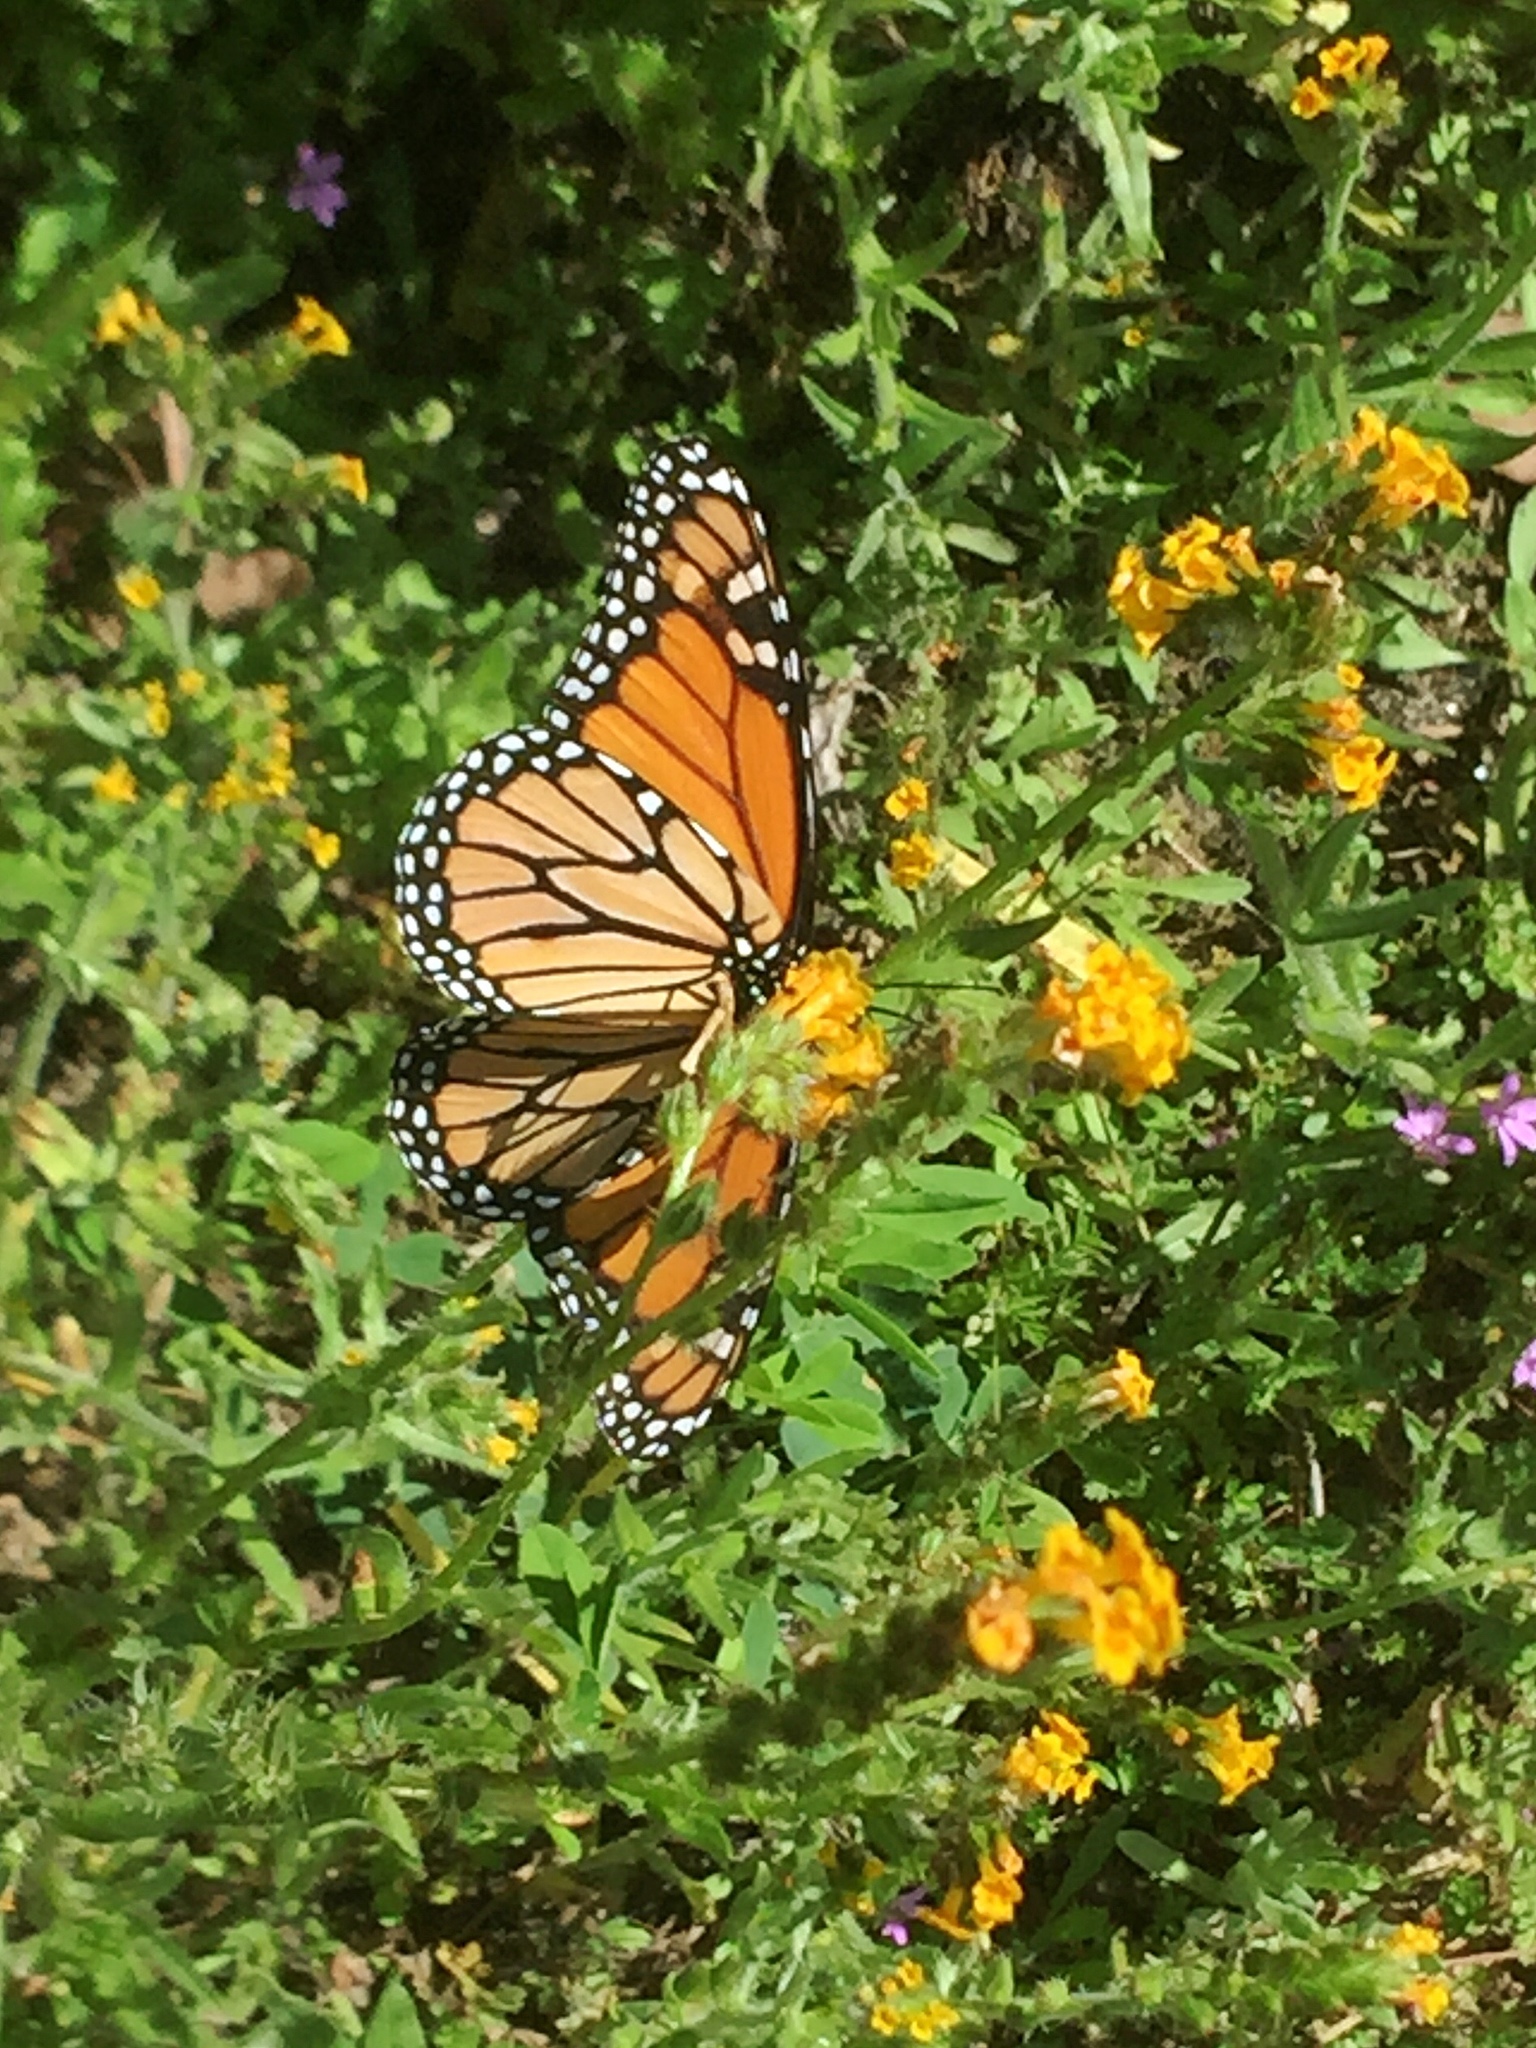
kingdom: Animalia
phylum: Arthropoda
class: Insecta
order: Lepidoptera
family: Nymphalidae
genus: Danaus
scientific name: Danaus plexippus
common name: Monarch
